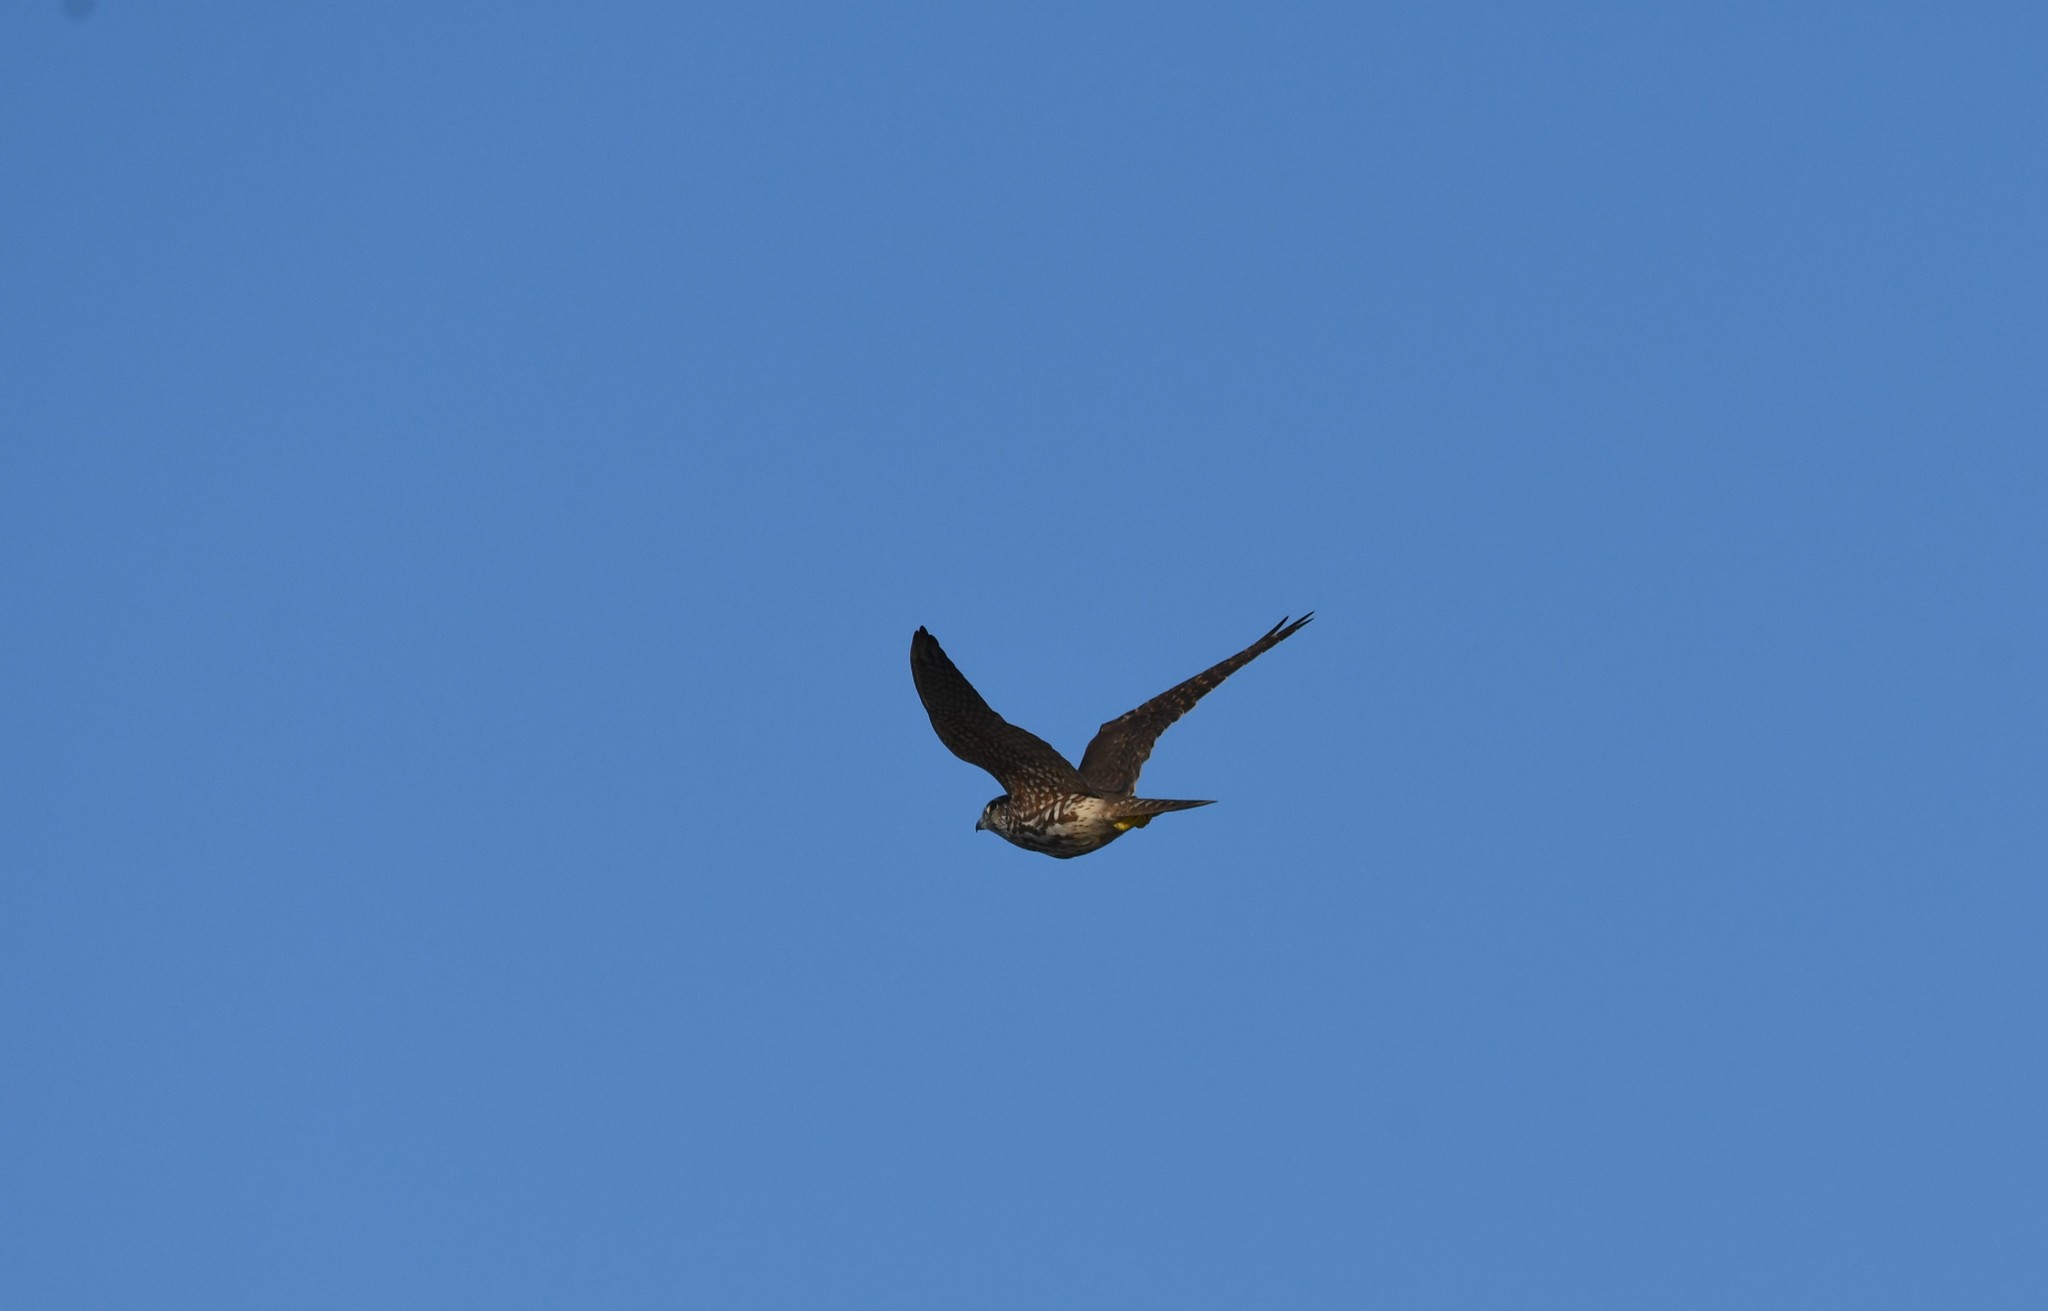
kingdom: Animalia
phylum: Chordata
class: Aves
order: Falconiformes
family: Falconidae
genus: Falco
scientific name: Falco columbarius
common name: Merlin
